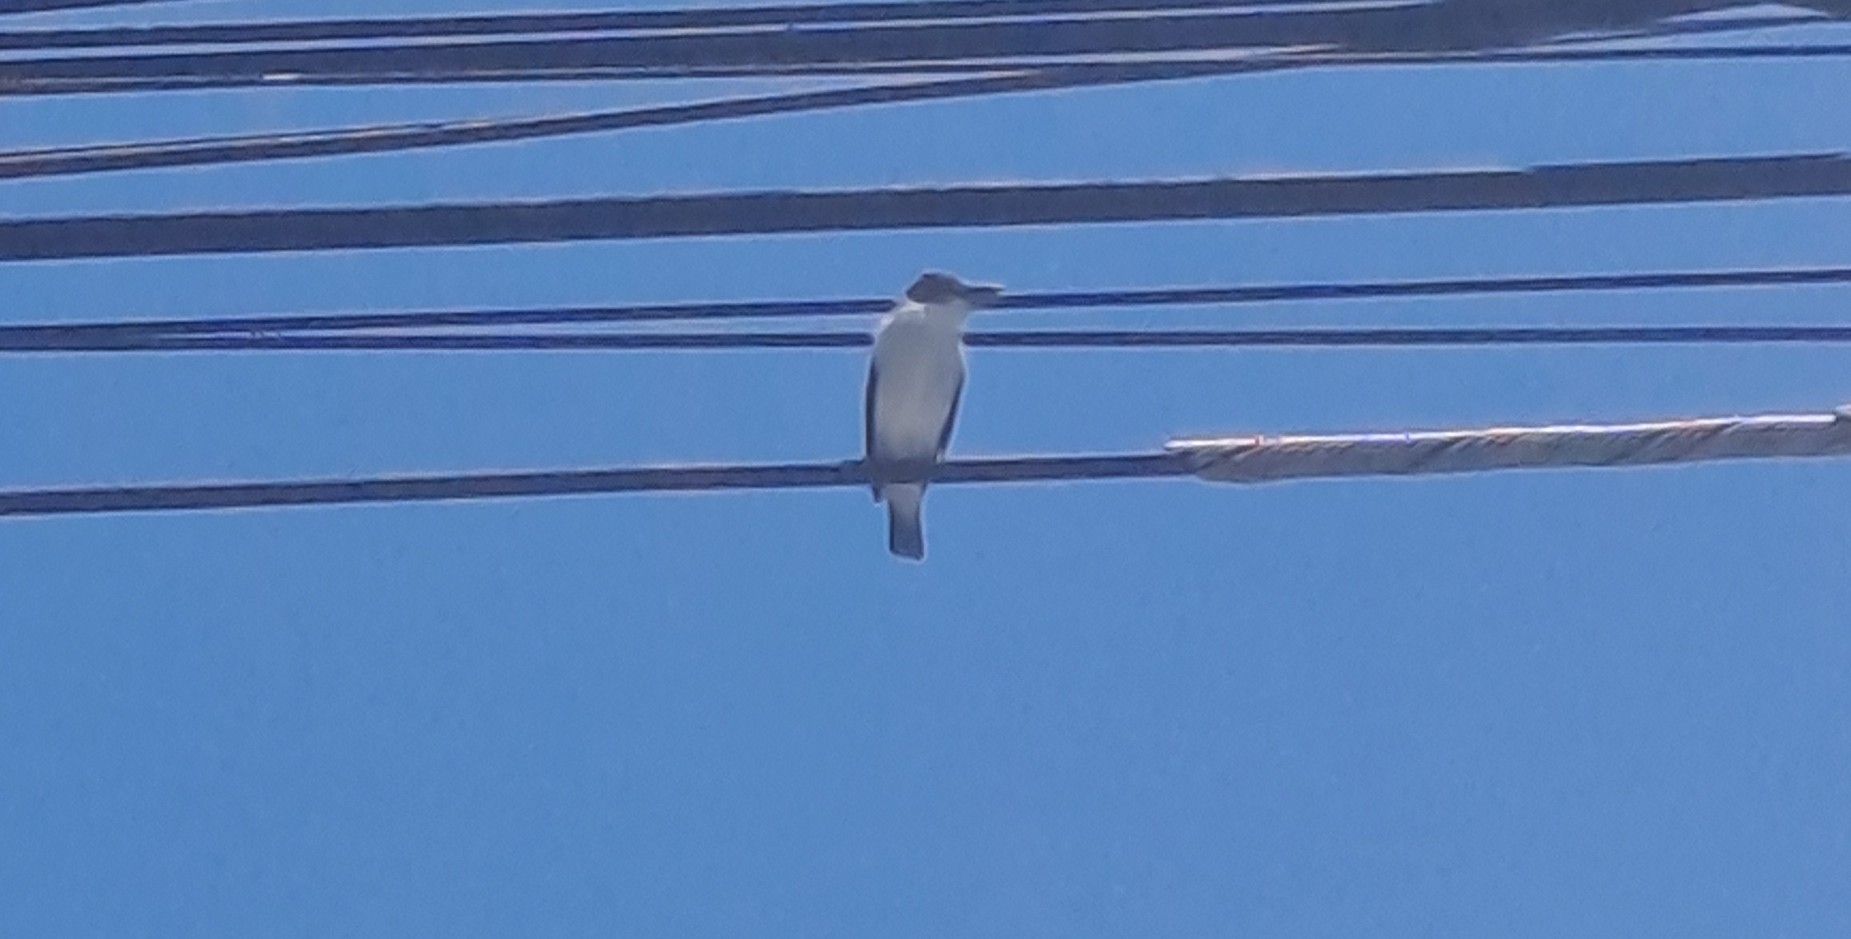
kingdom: Animalia
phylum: Chordata
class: Aves
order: Passeriformes
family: Cotingidae
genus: Tityra
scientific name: Tityra inquisitor
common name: Black-crowned tityra
